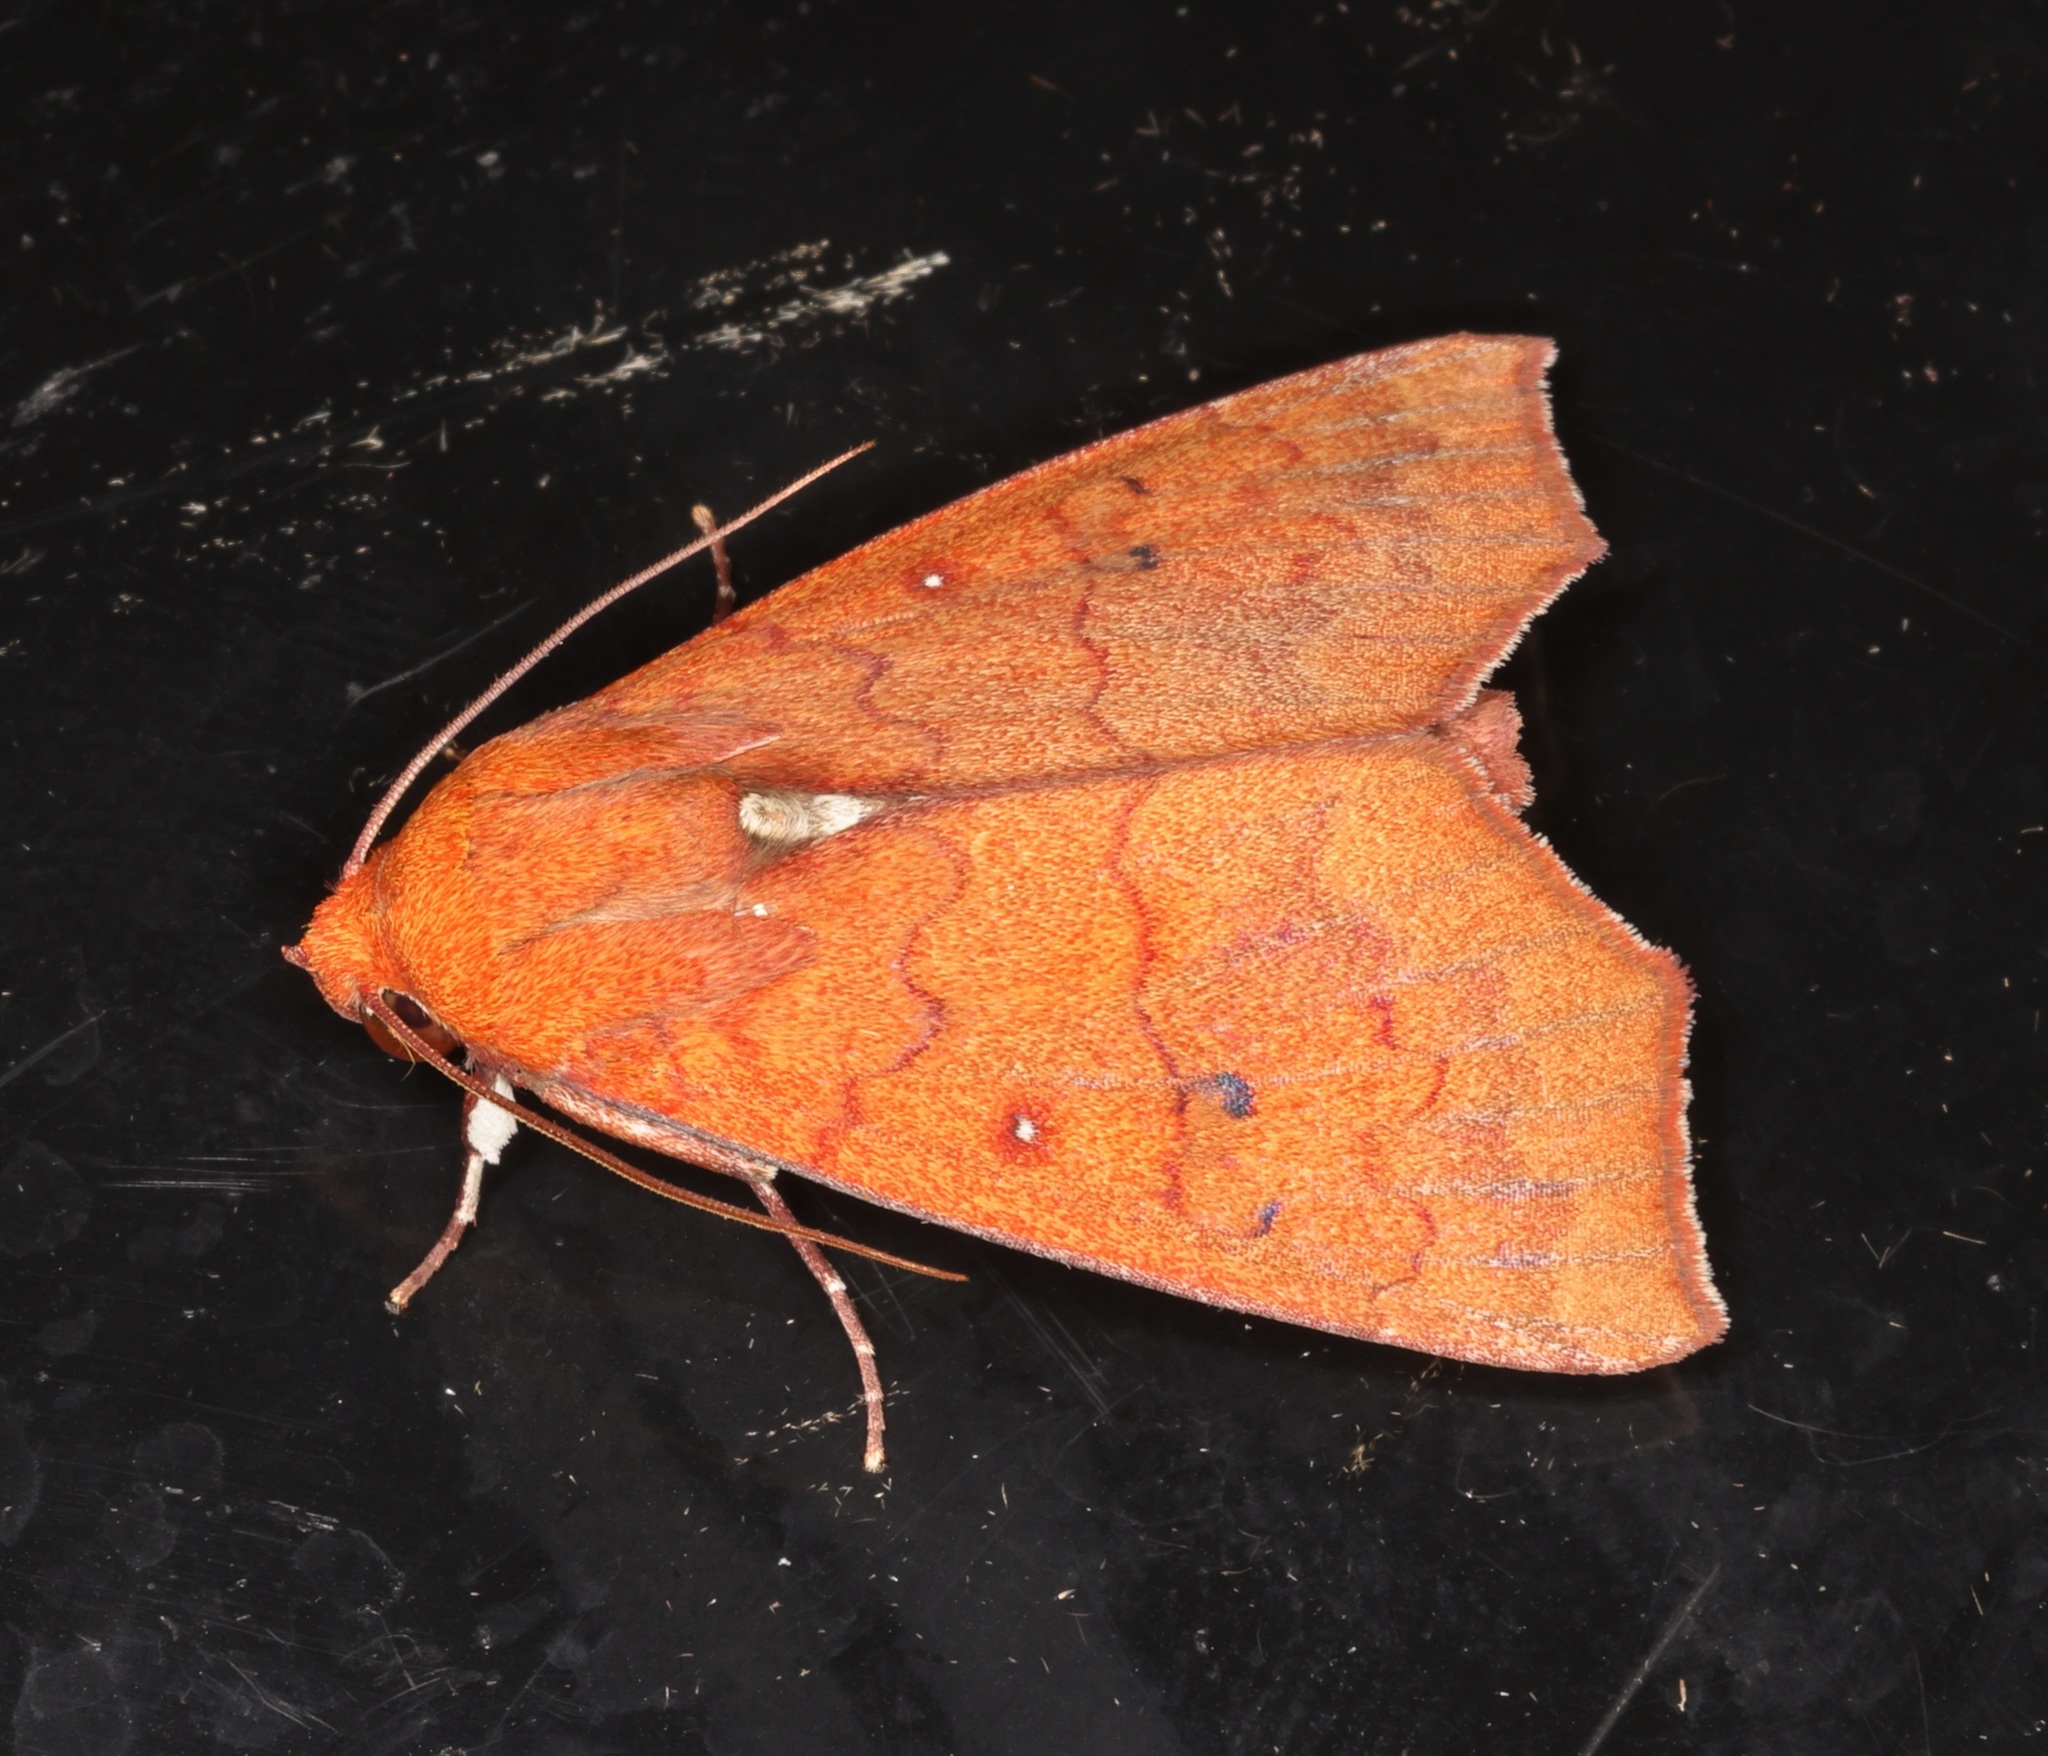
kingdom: Animalia
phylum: Arthropoda
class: Insecta
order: Lepidoptera
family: Erebidae
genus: Rusicada
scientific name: Rusicada combinans
